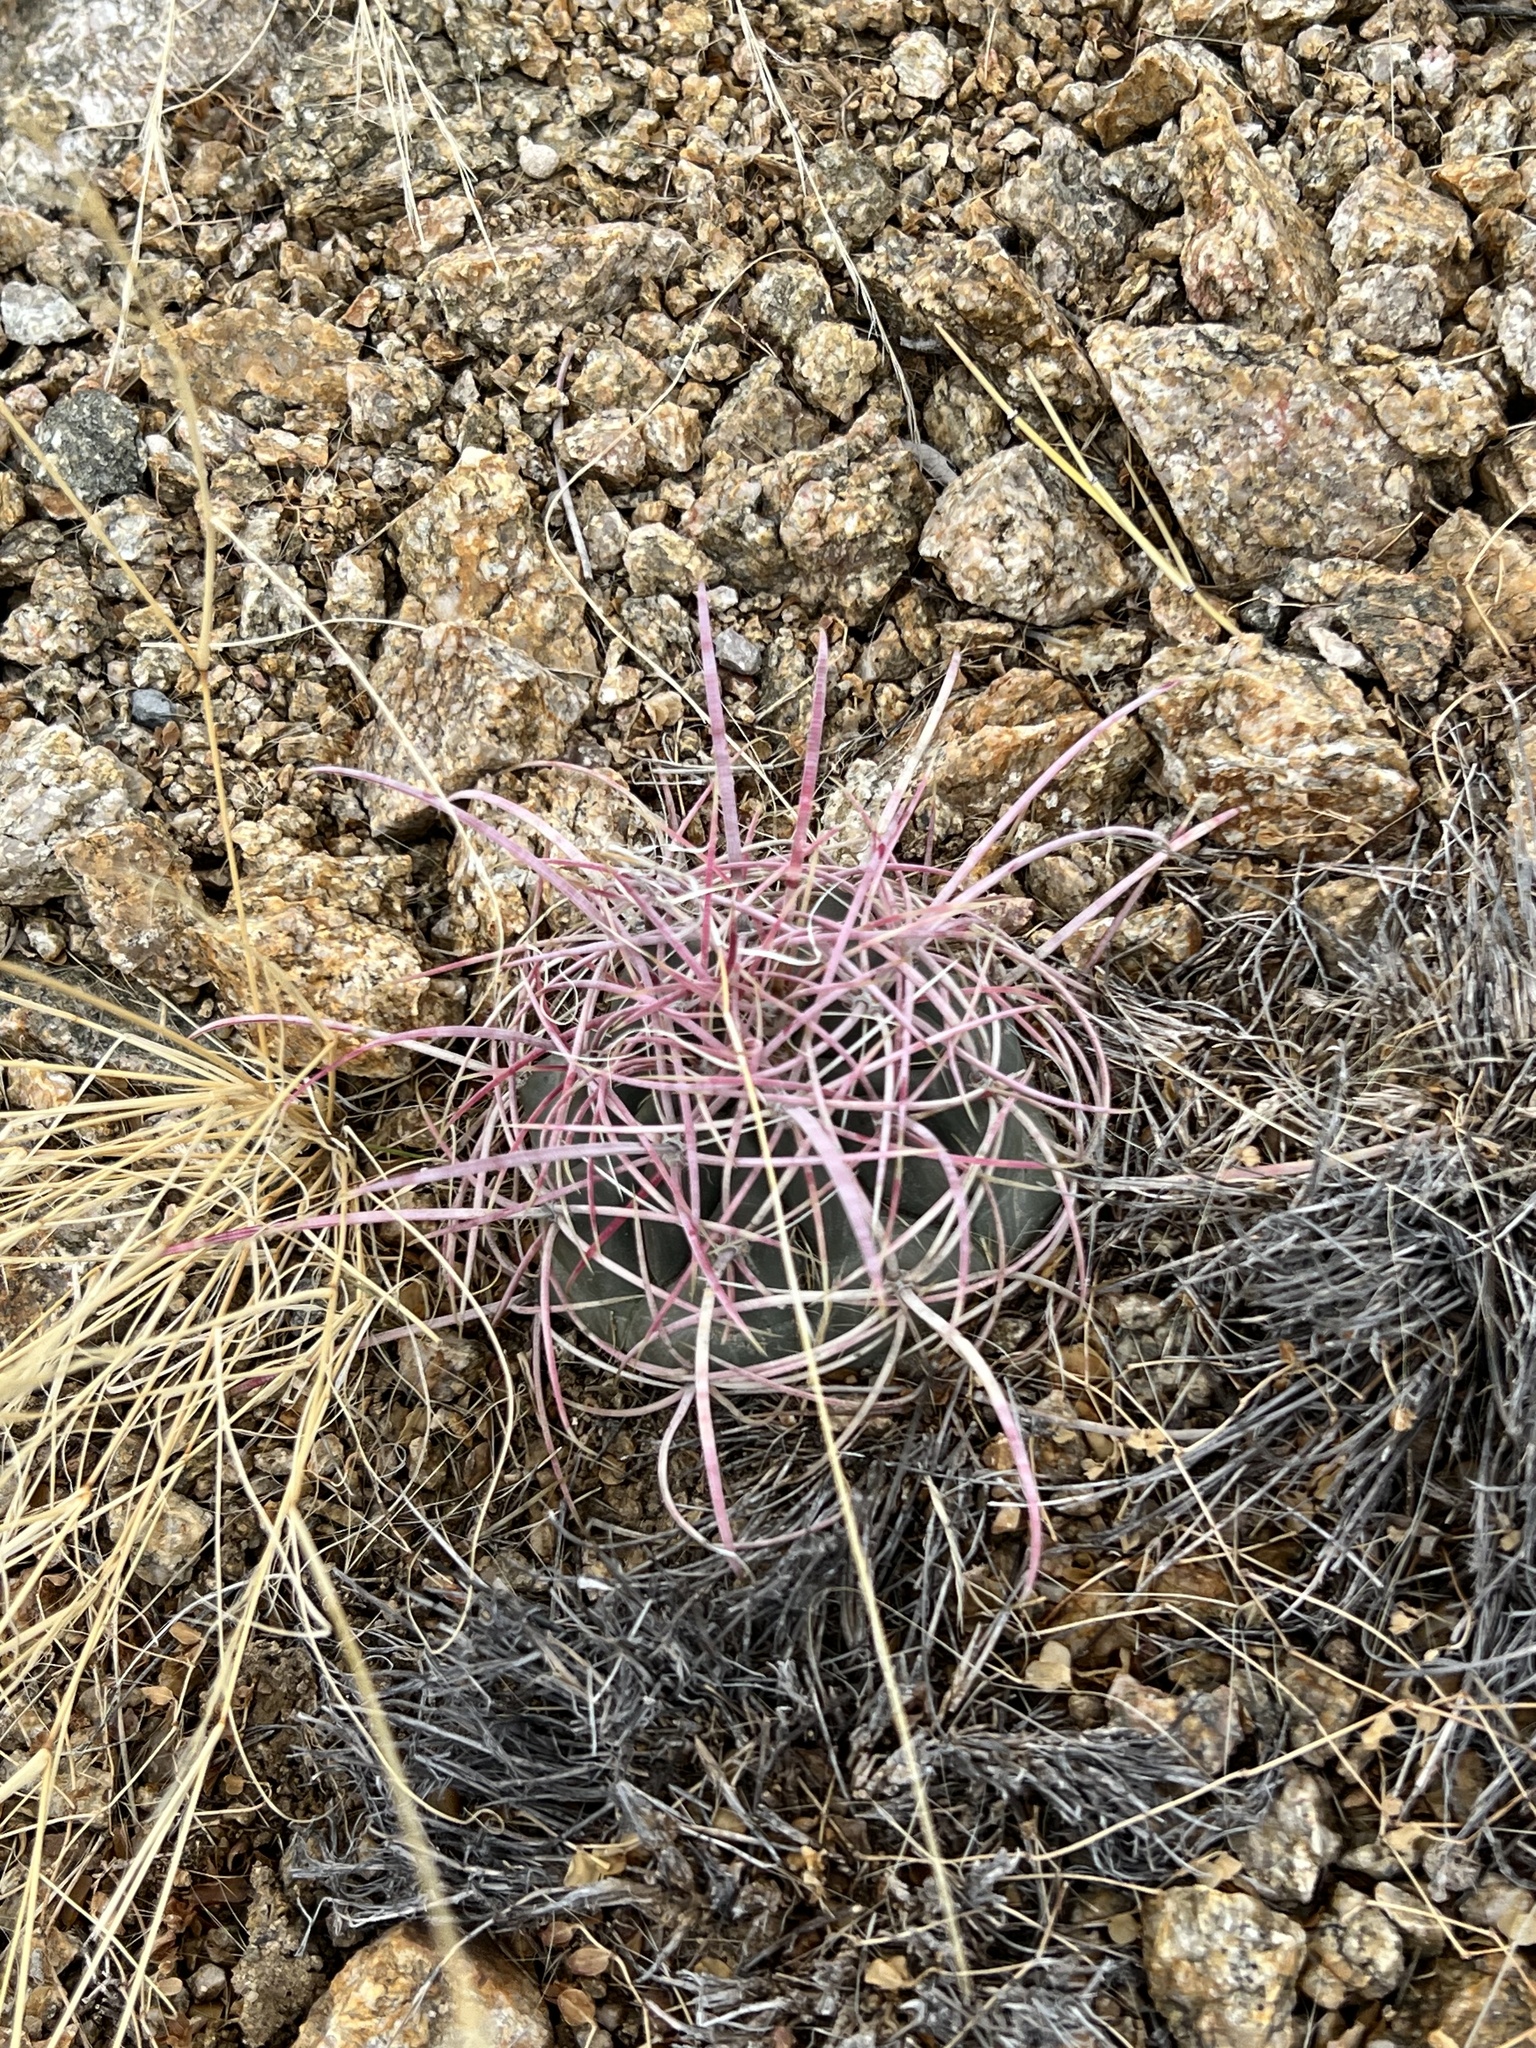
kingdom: Plantae
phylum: Tracheophyta
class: Magnoliopsida
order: Caryophyllales
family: Cactaceae
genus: Ferocactus
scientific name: Ferocactus cylindraceus
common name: California barrel cactus
